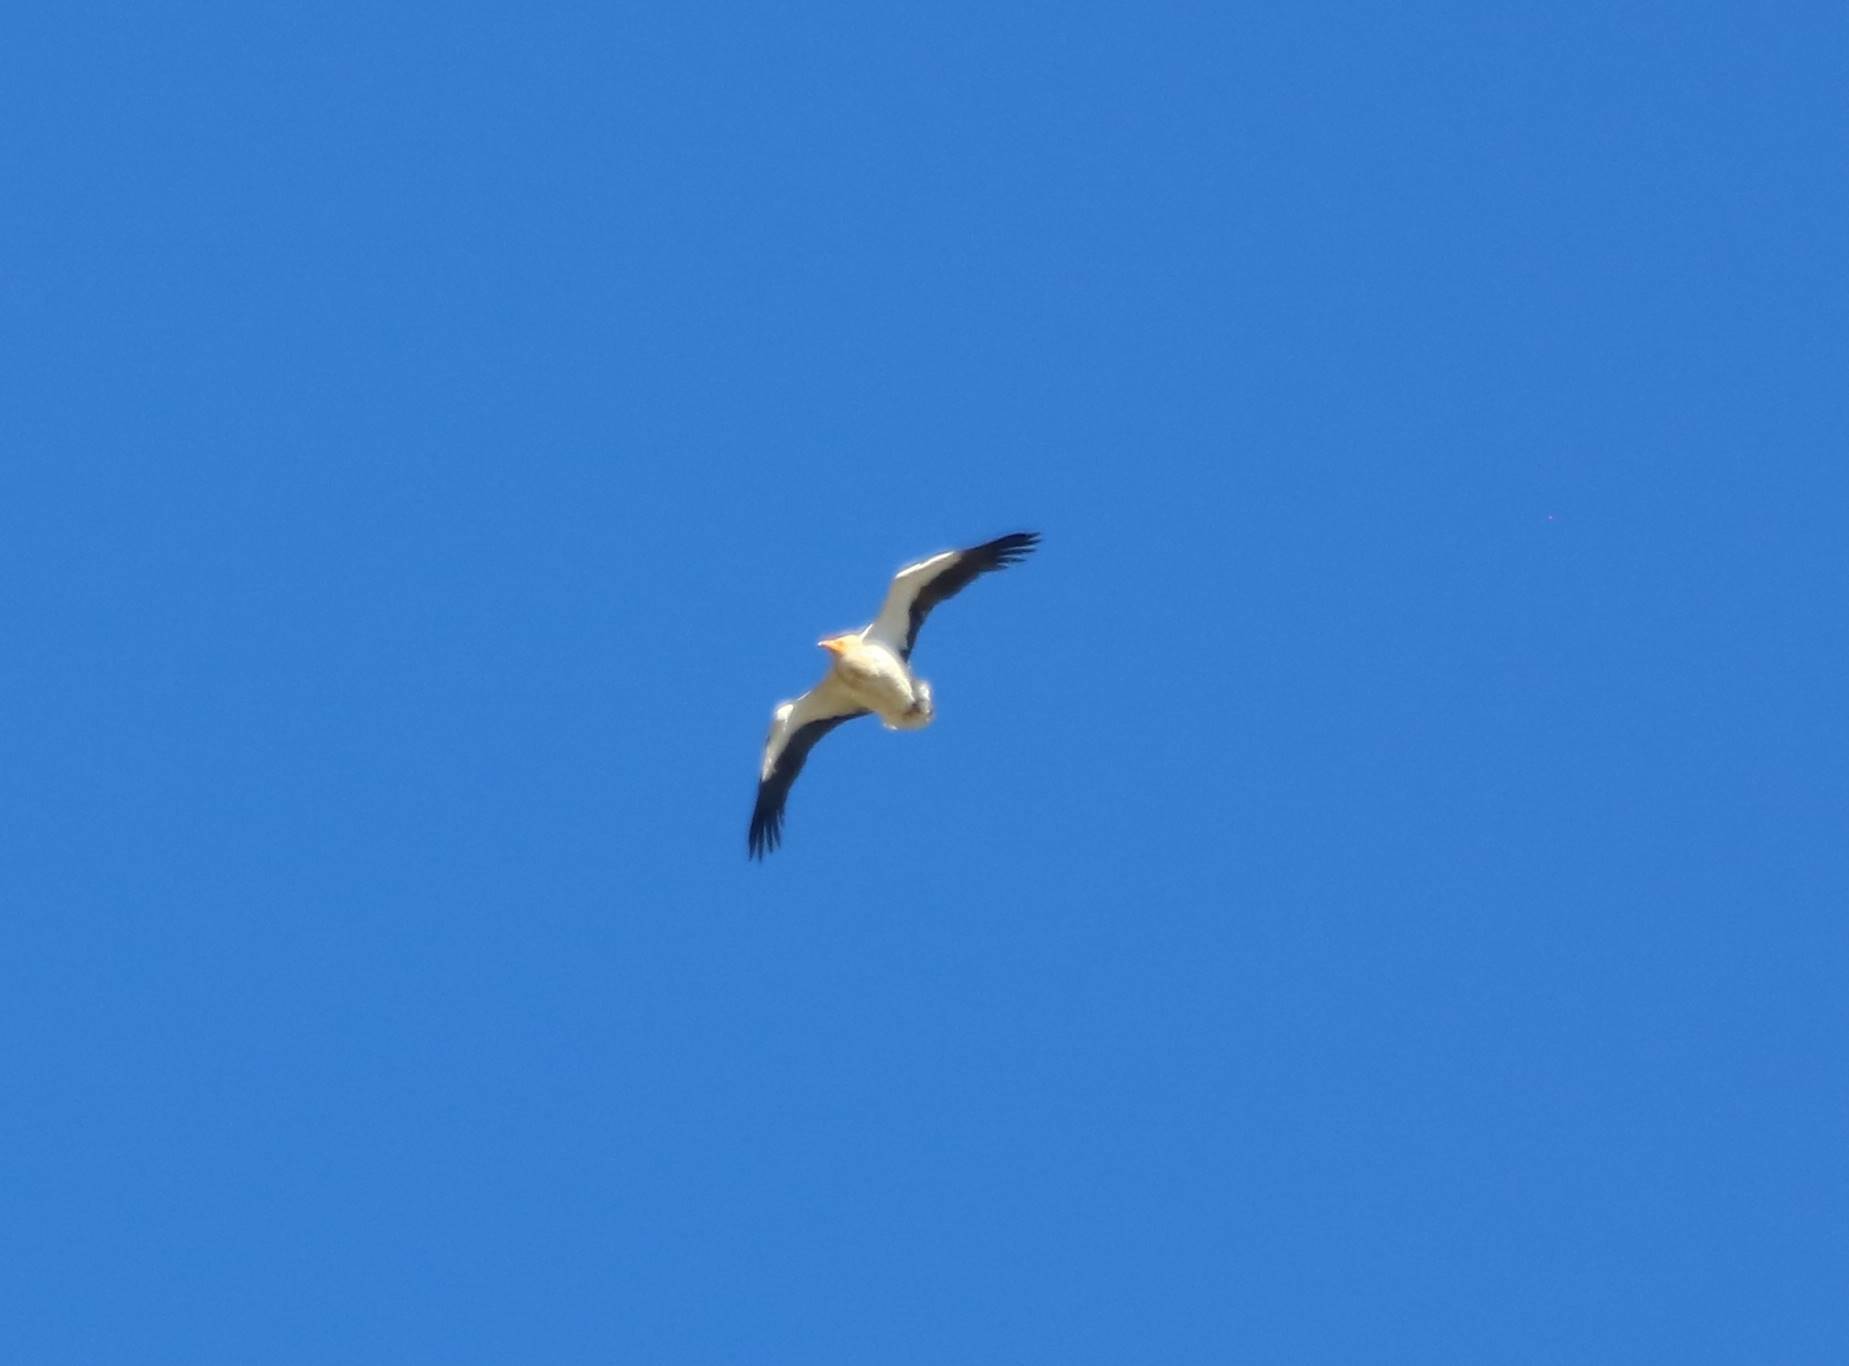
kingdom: Animalia
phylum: Chordata
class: Aves
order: Accipitriformes
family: Accipitridae
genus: Neophron
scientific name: Neophron percnopterus
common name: Egyptian vulture
